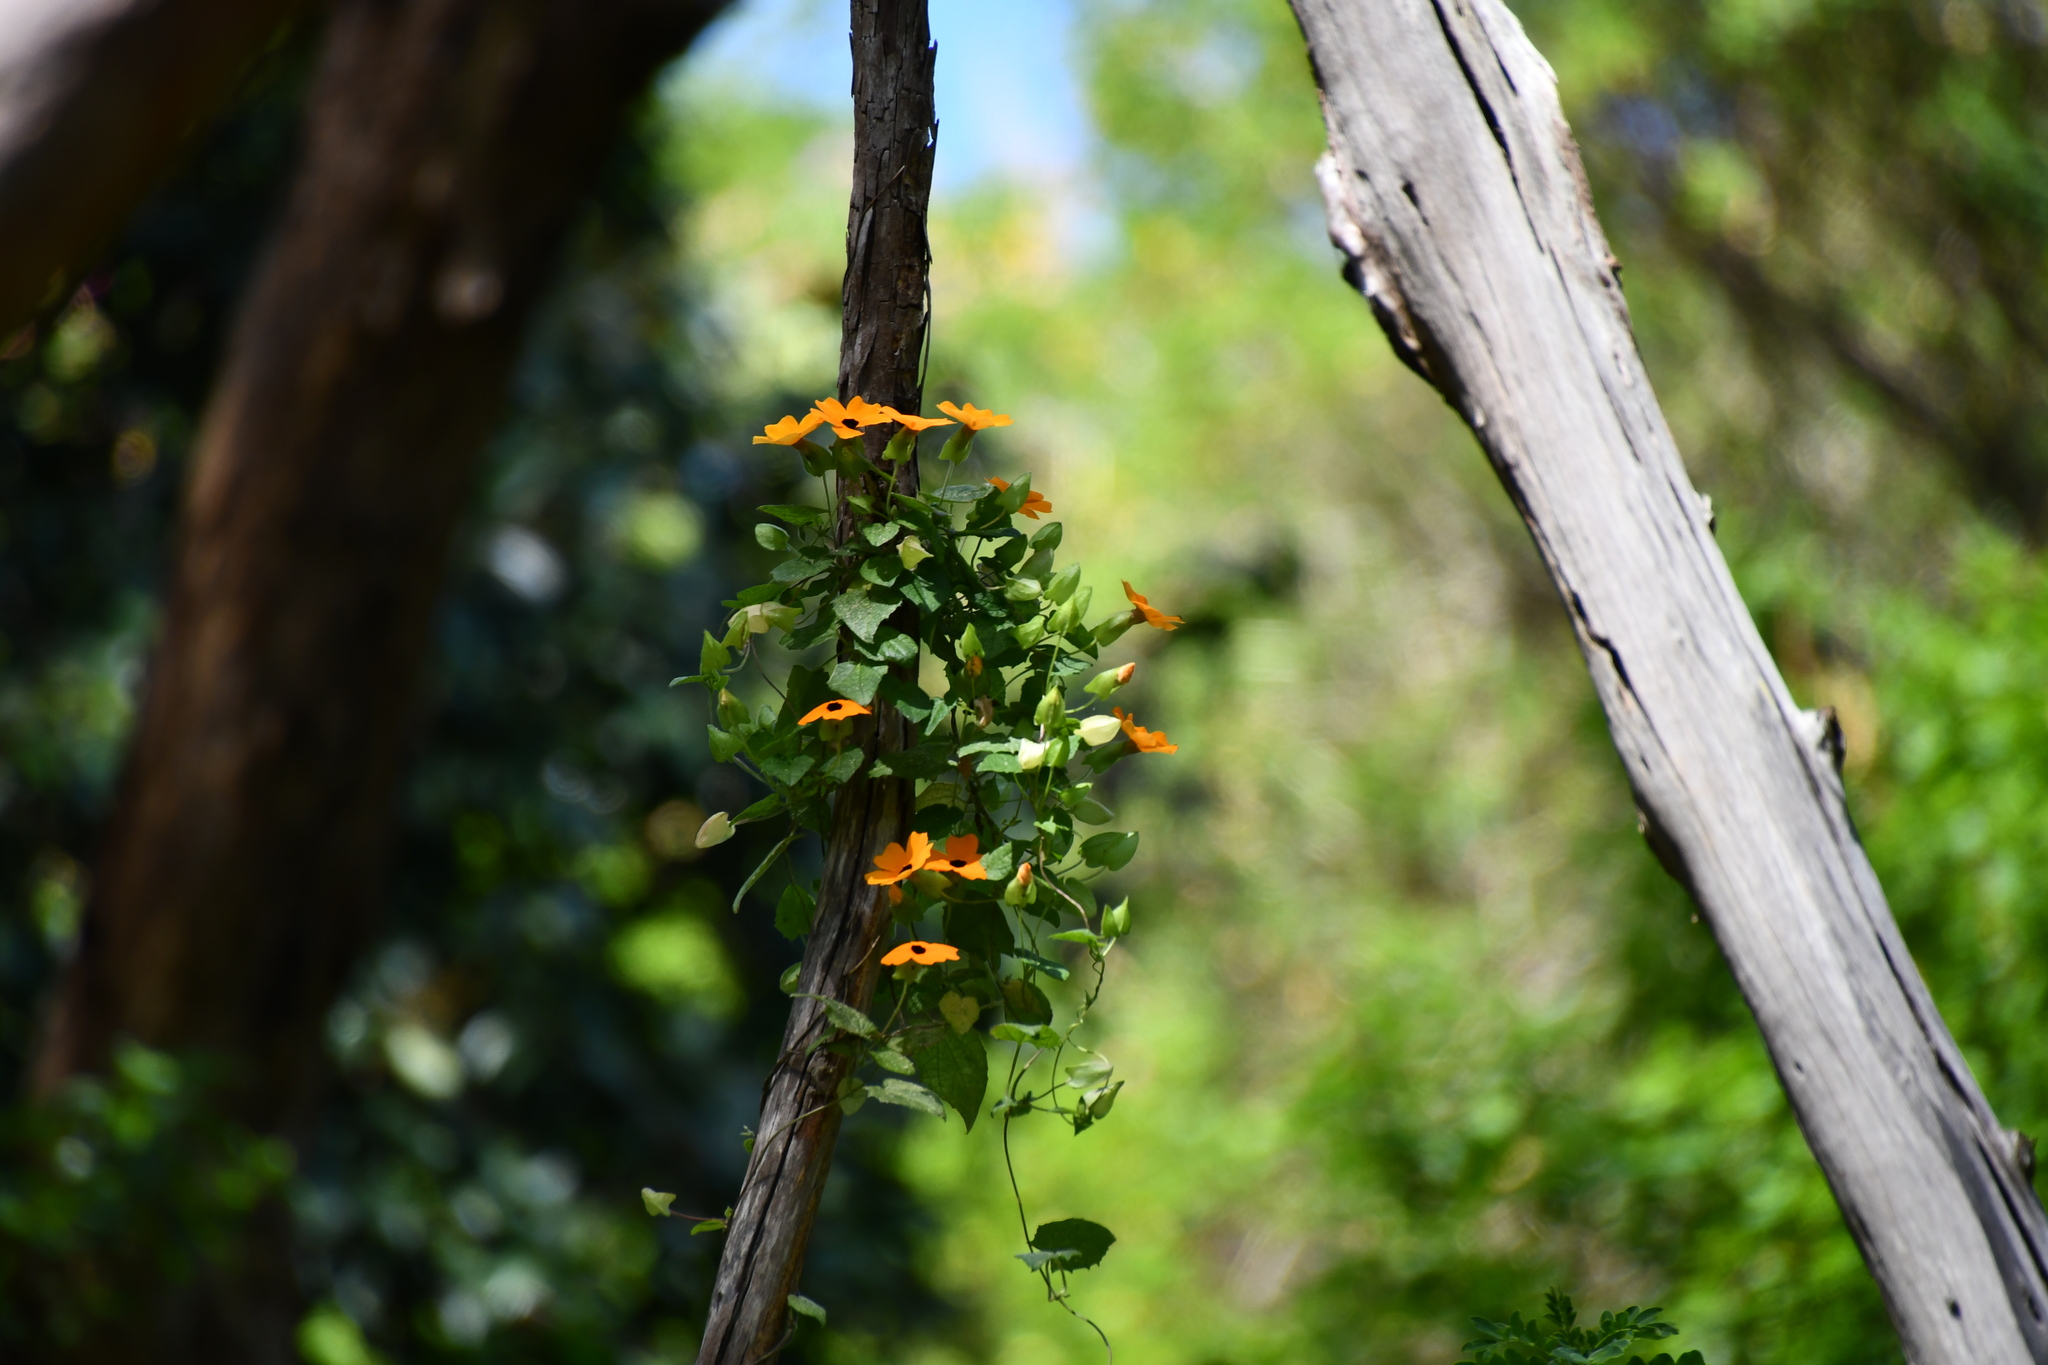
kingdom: Plantae
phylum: Tracheophyta
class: Magnoliopsida
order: Lamiales
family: Acanthaceae
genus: Thunbergia
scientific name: Thunbergia alata
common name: Blackeyed susan vine
